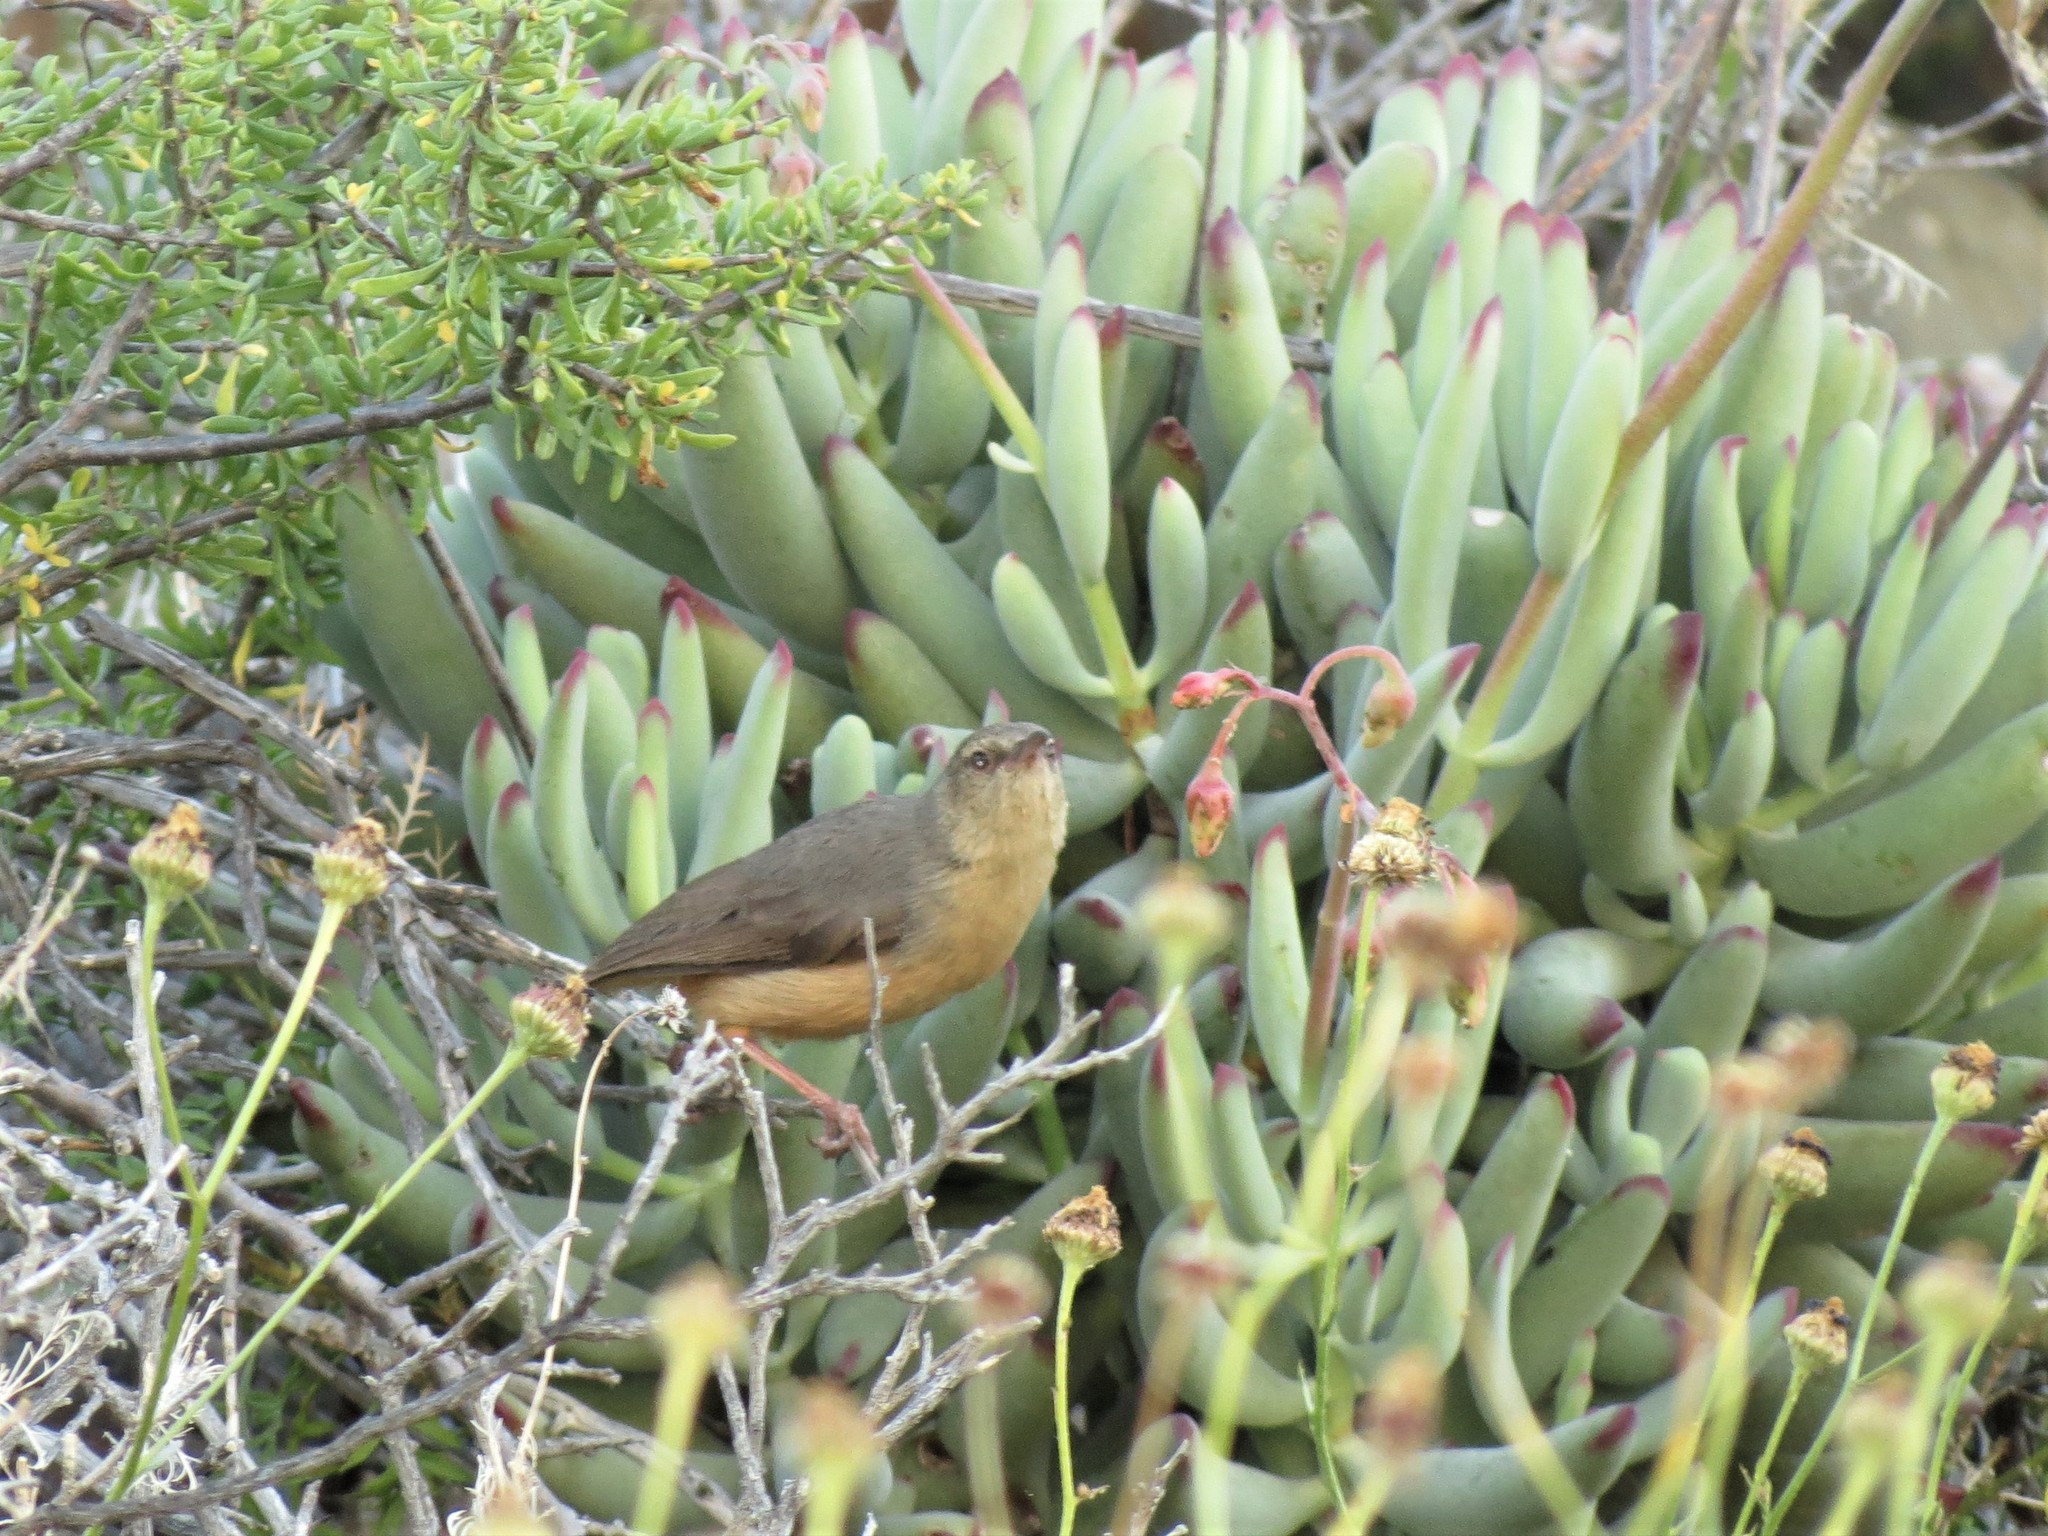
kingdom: Animalia
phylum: Chordata
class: Aves
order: Passeriformes
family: Macrosphenidae
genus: Sylvietta
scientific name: Sylvietta rufescens
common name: Long-billed crombec
